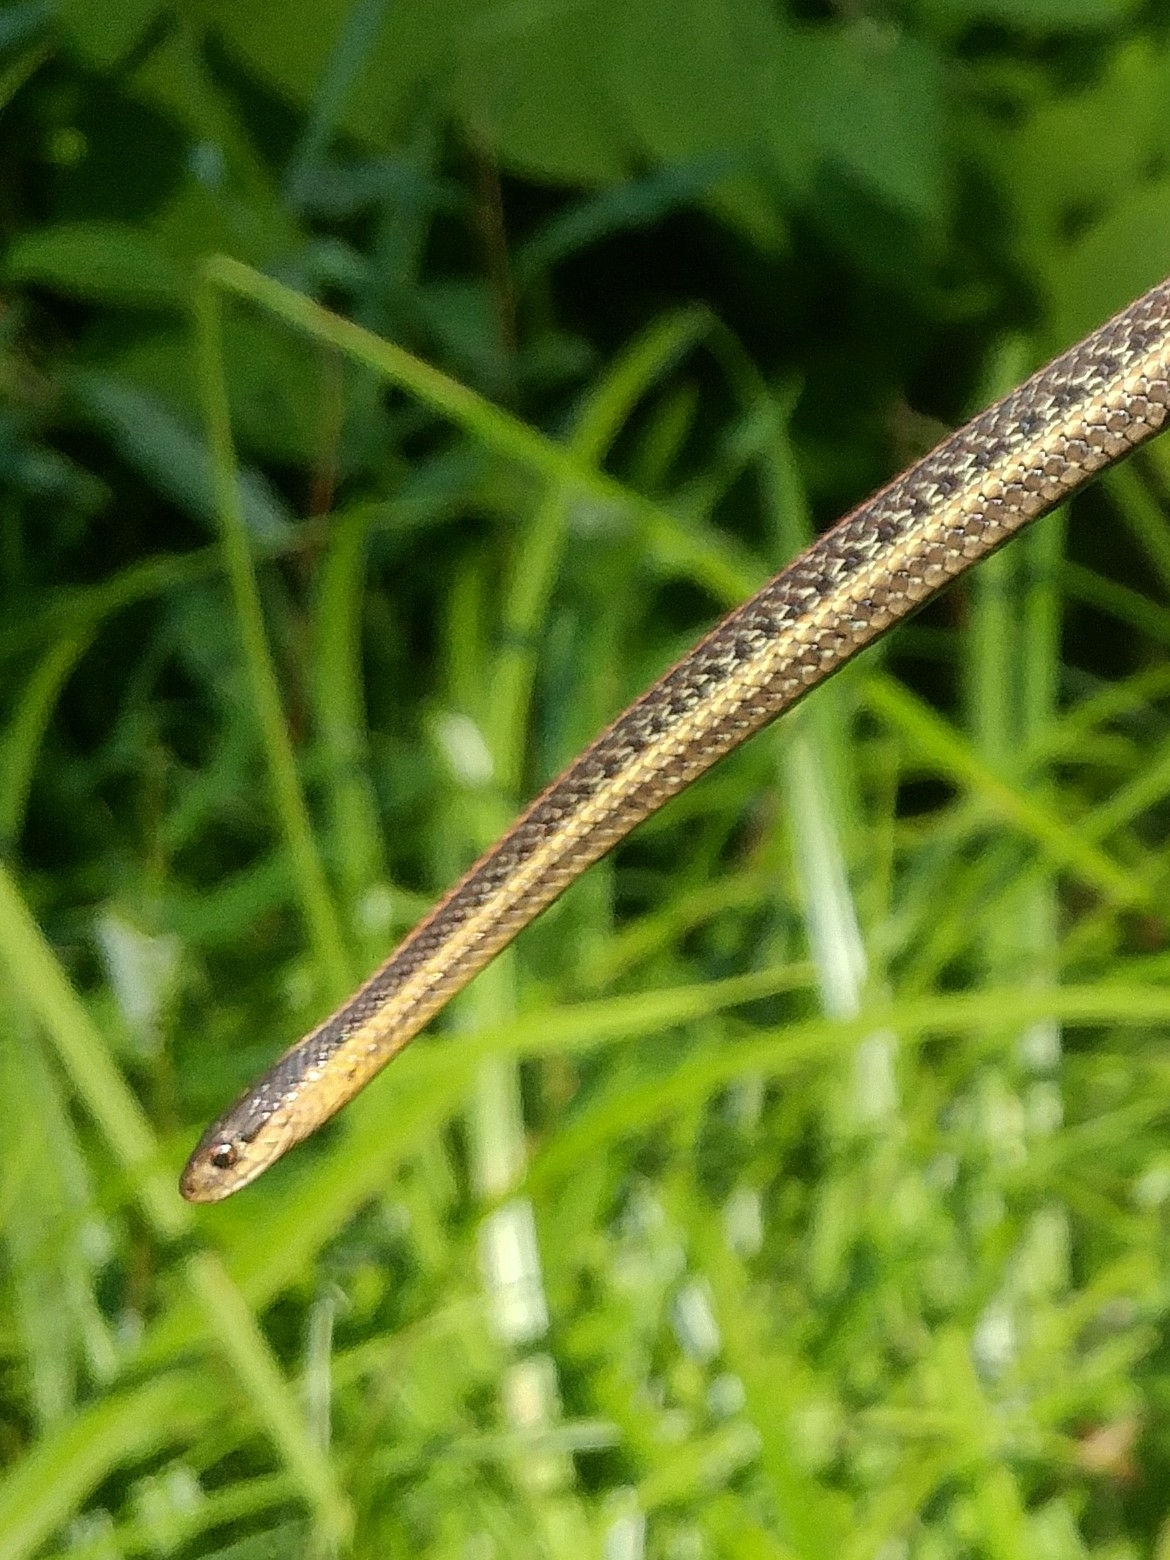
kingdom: Animalia
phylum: Chordata
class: Squamata
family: Colubridae
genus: Thamnophis
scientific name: Thamnophis ordinoides
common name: Northwestern garter snake
